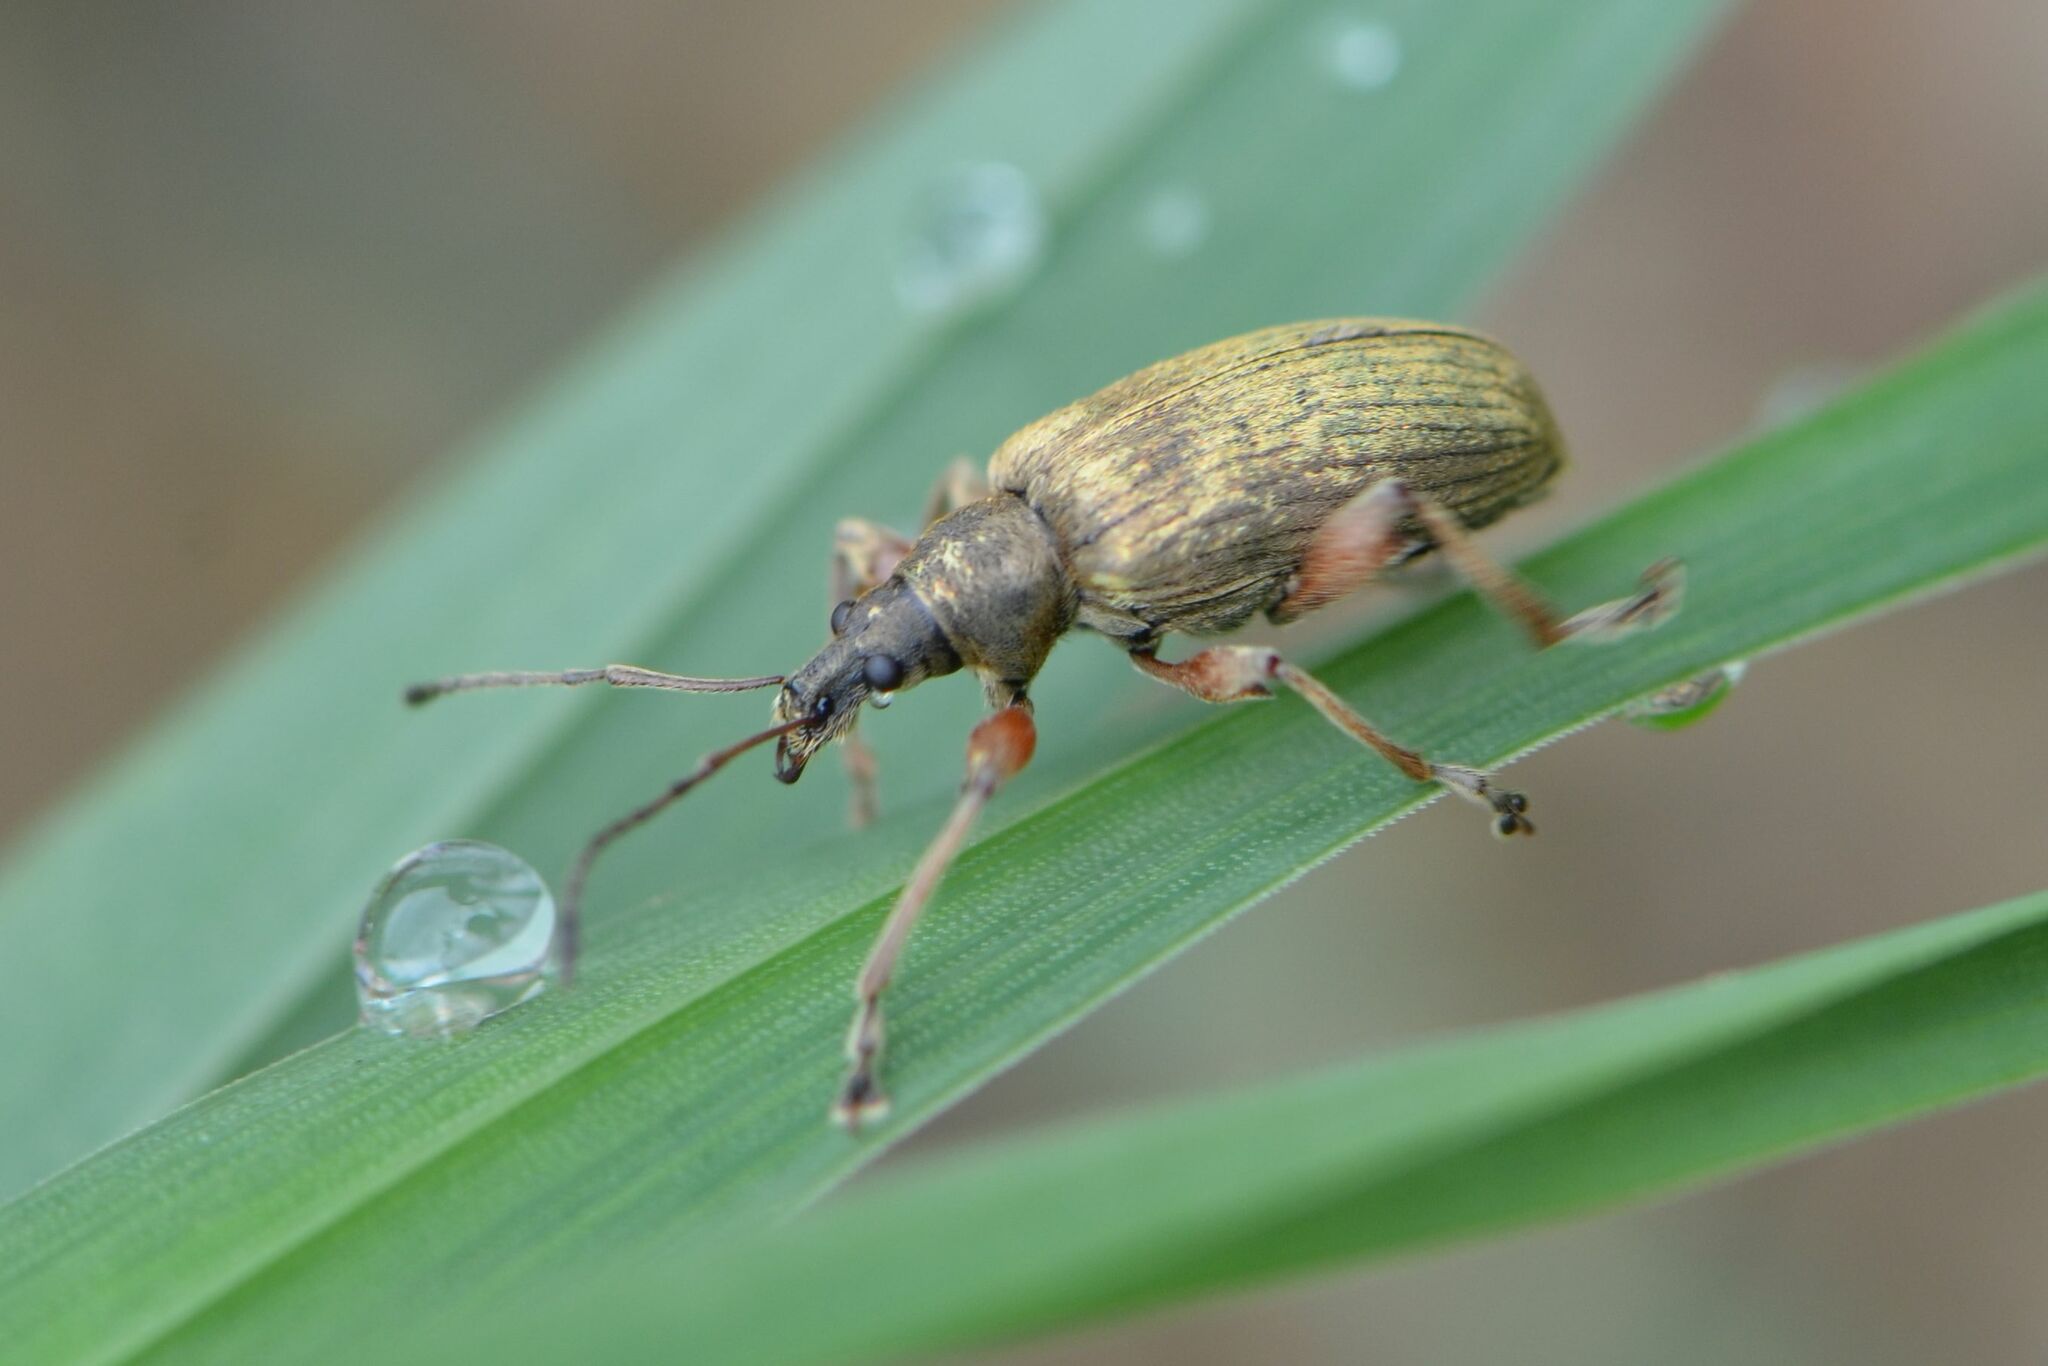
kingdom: Animalia
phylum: Arthropoda
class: Insecta
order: Coleoptera
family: Curculionidae
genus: Phyllobius
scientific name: Phyllobius glaucus
